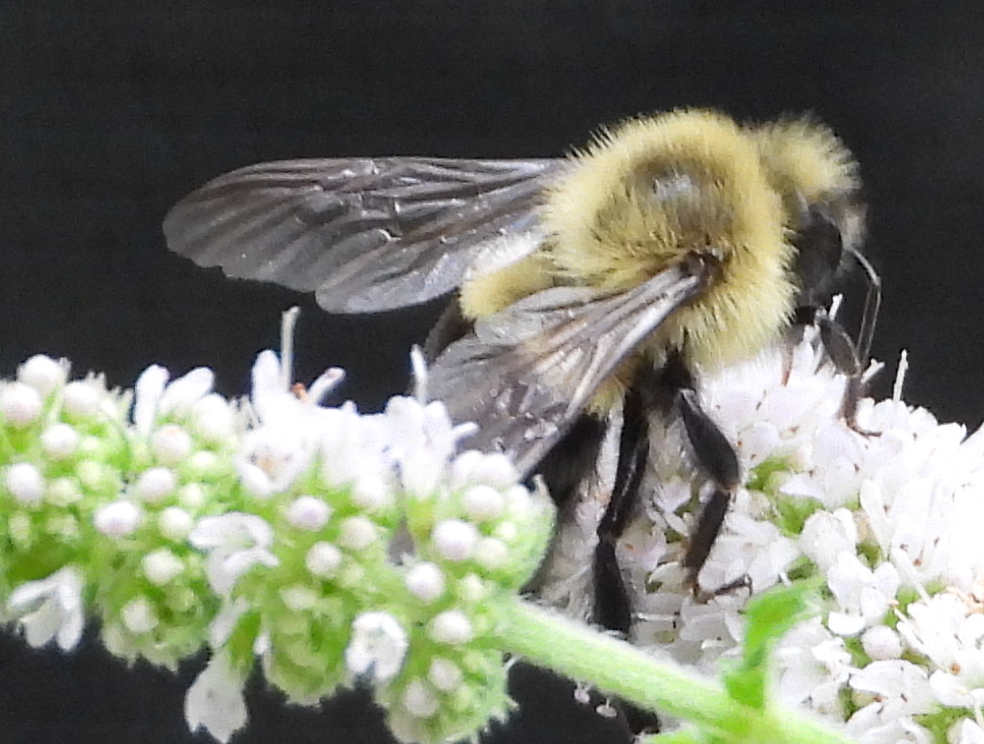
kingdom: Animalia
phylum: Arthropoda
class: Insecta
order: Hymenoptera
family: Apidae
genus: Bombus
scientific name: Bombus impatiens
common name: Common eastern bumble bee
